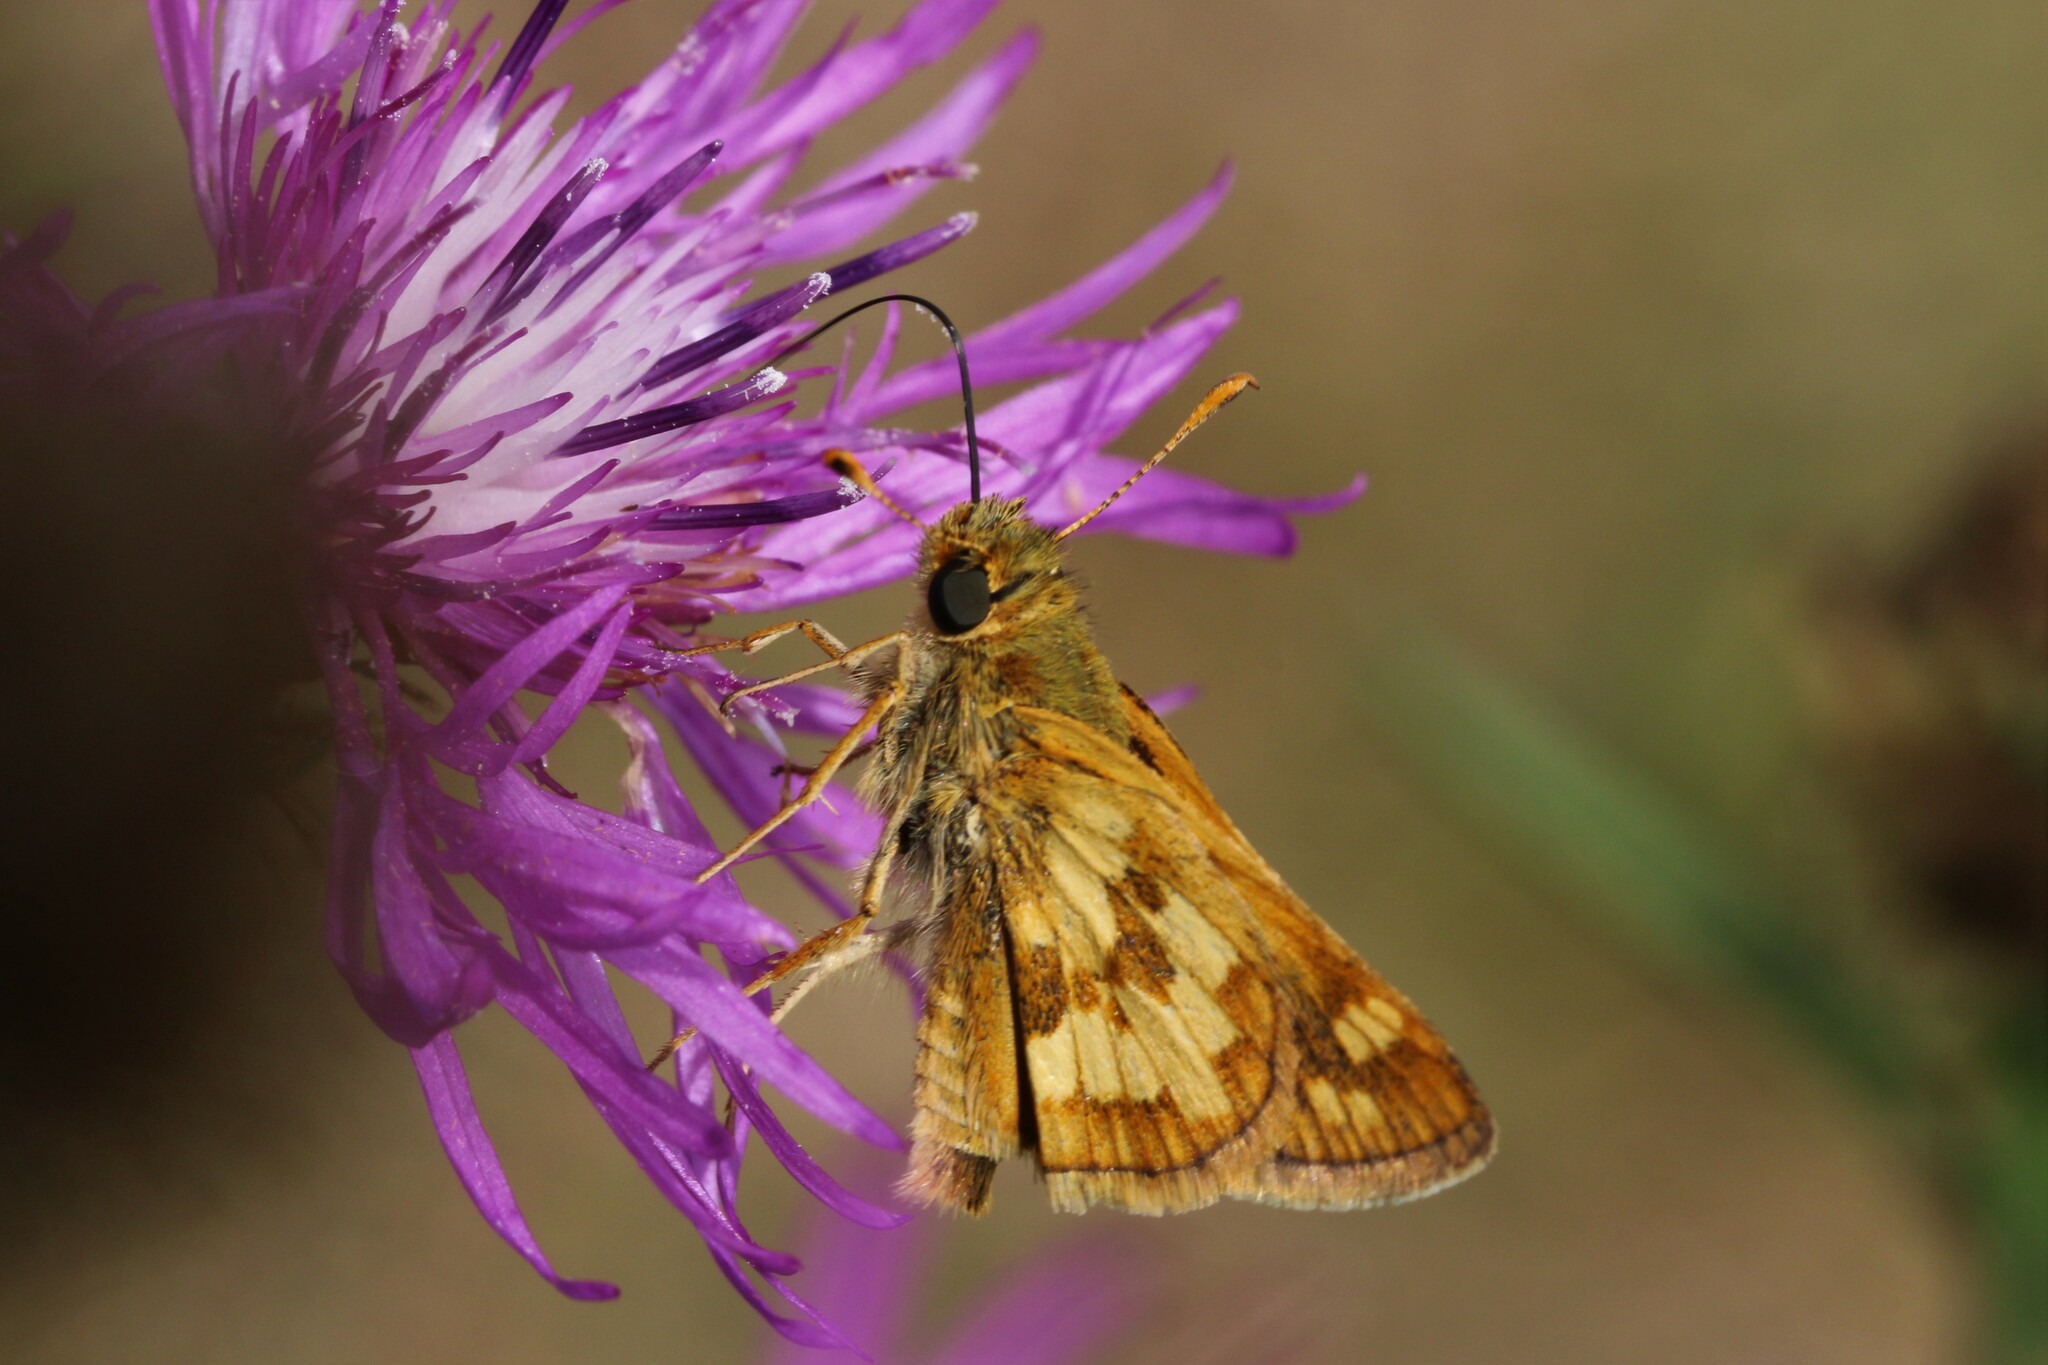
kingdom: Animalia
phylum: Arthropoda
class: Insecta
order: Lepidoptera
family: Hesperiidae
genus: Polites
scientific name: Polites coras
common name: Peck's skipper
